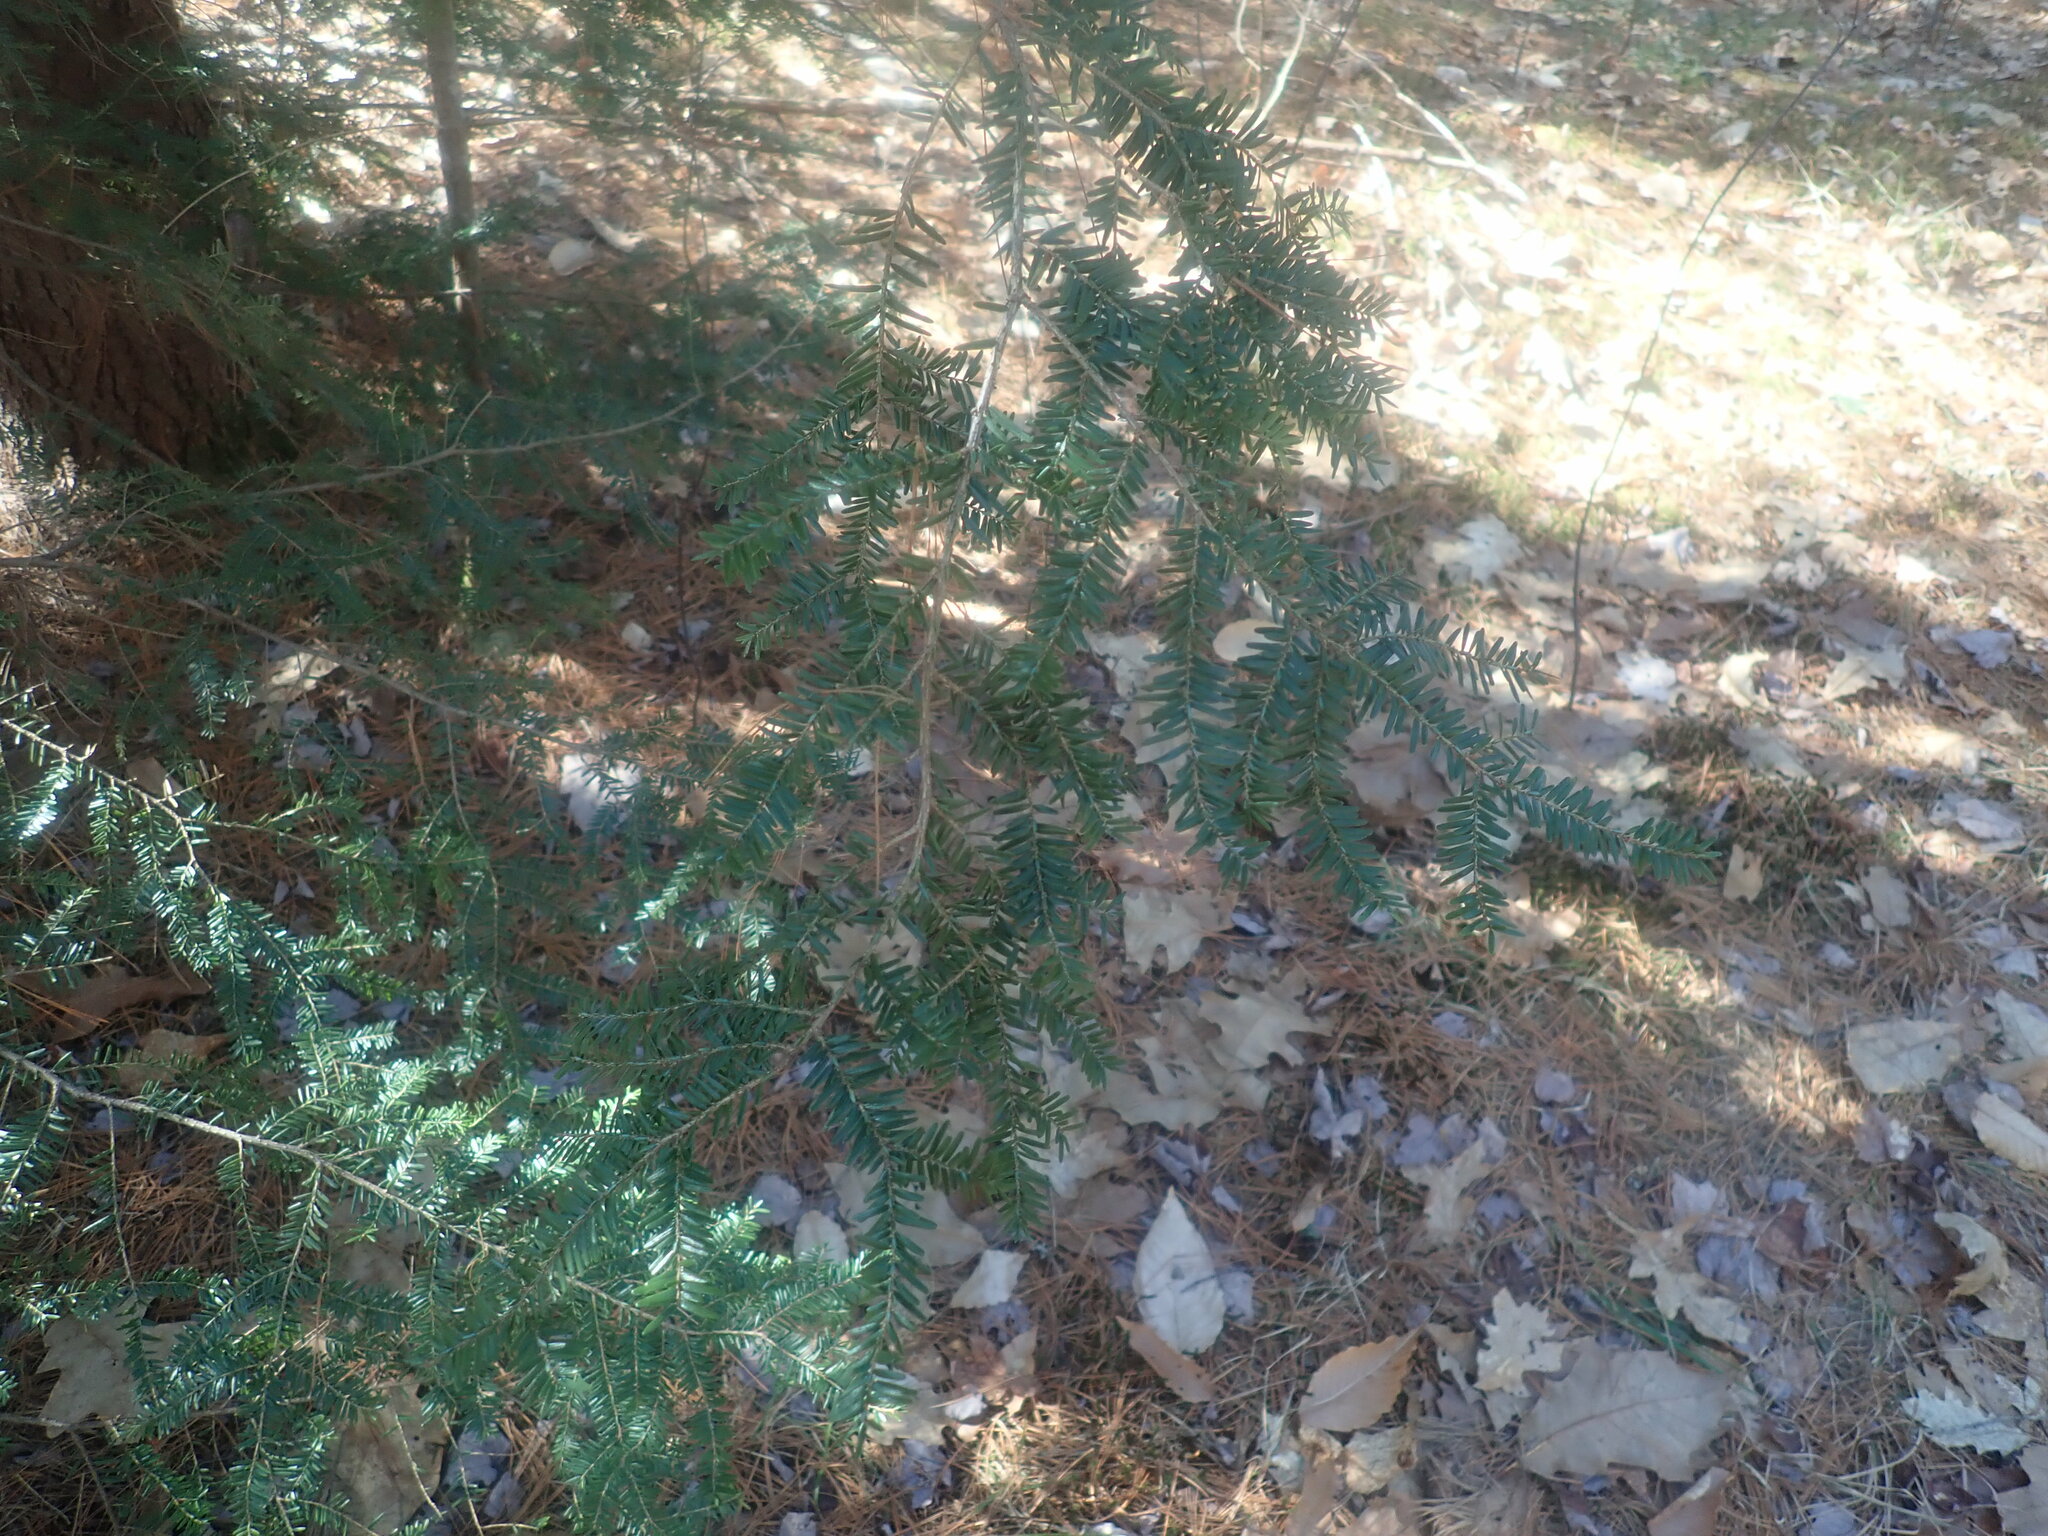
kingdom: Plantae
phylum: Tracheophyta
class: Pinopsida
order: Pinales
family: Pinaceae
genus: Tsuga
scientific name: Tsuga canadensis
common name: Eastern hemlock
